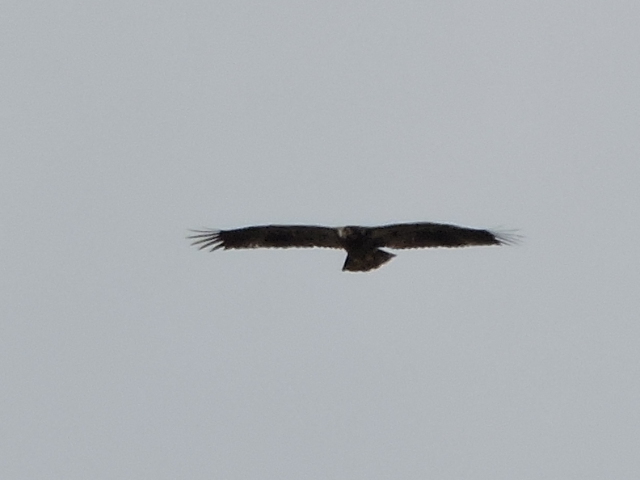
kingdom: Animalia
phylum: Chordata
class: Aves
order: Accipitriformes
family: Accipitridae
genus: Haliaeetus
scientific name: Haliaeetus leucocephalus
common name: Bald eagle
